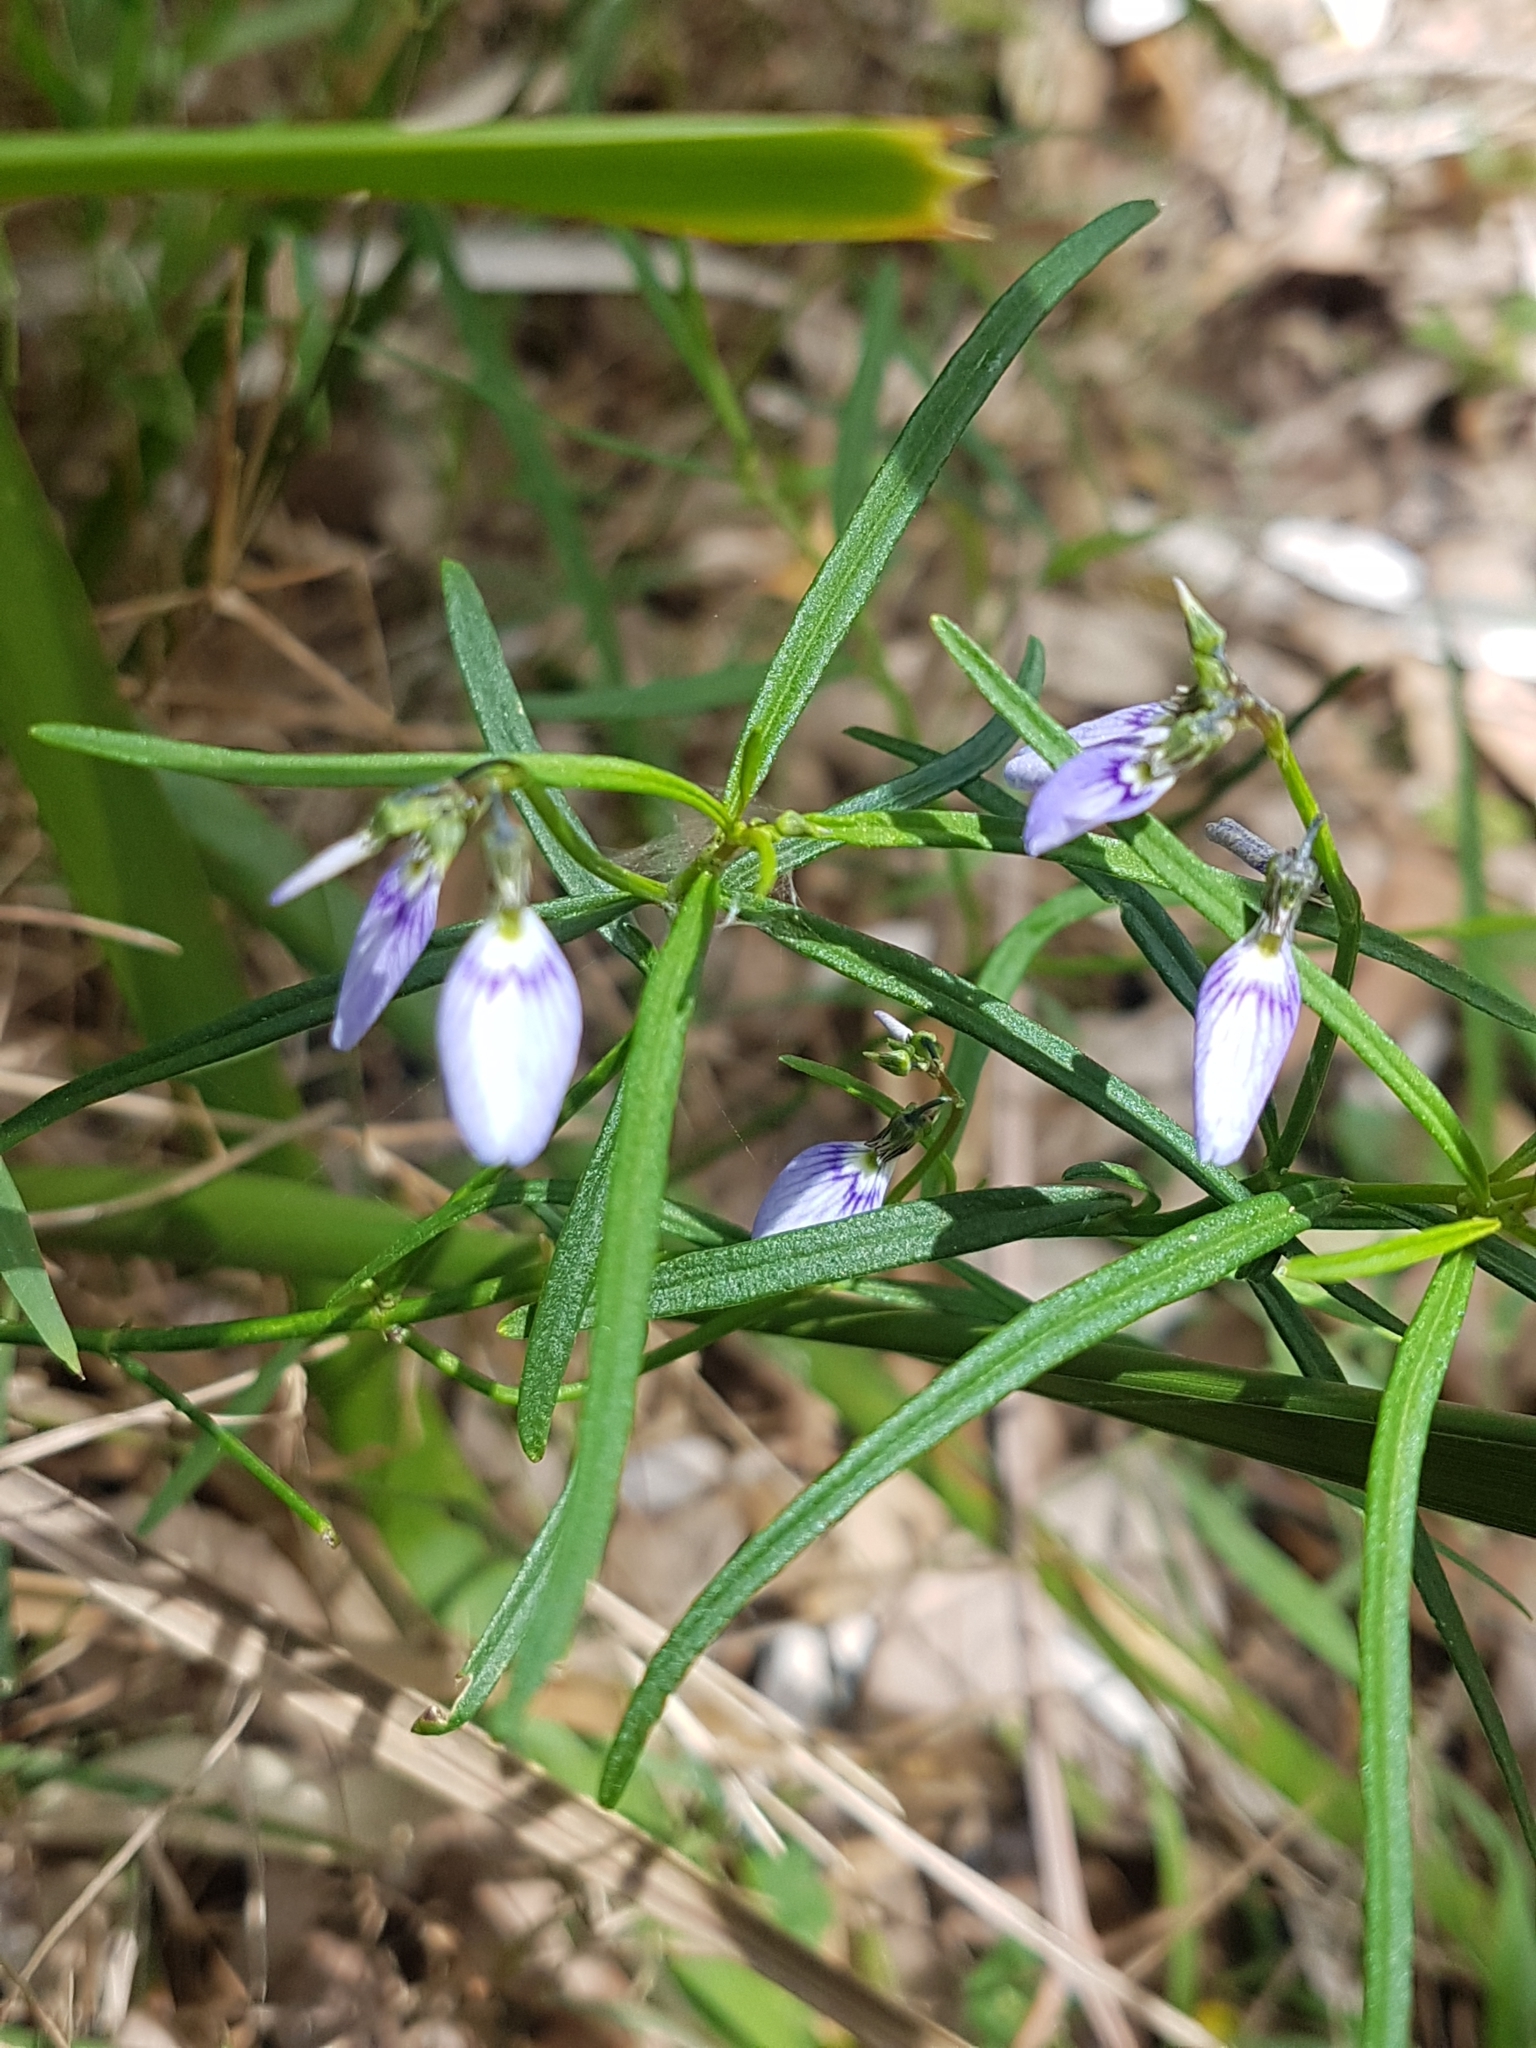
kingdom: Plantae
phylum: Tracheophyta
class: Magnoliopsida
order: Malpighiales
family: Violaceae
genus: Pigea
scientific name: Pigea monopetala
